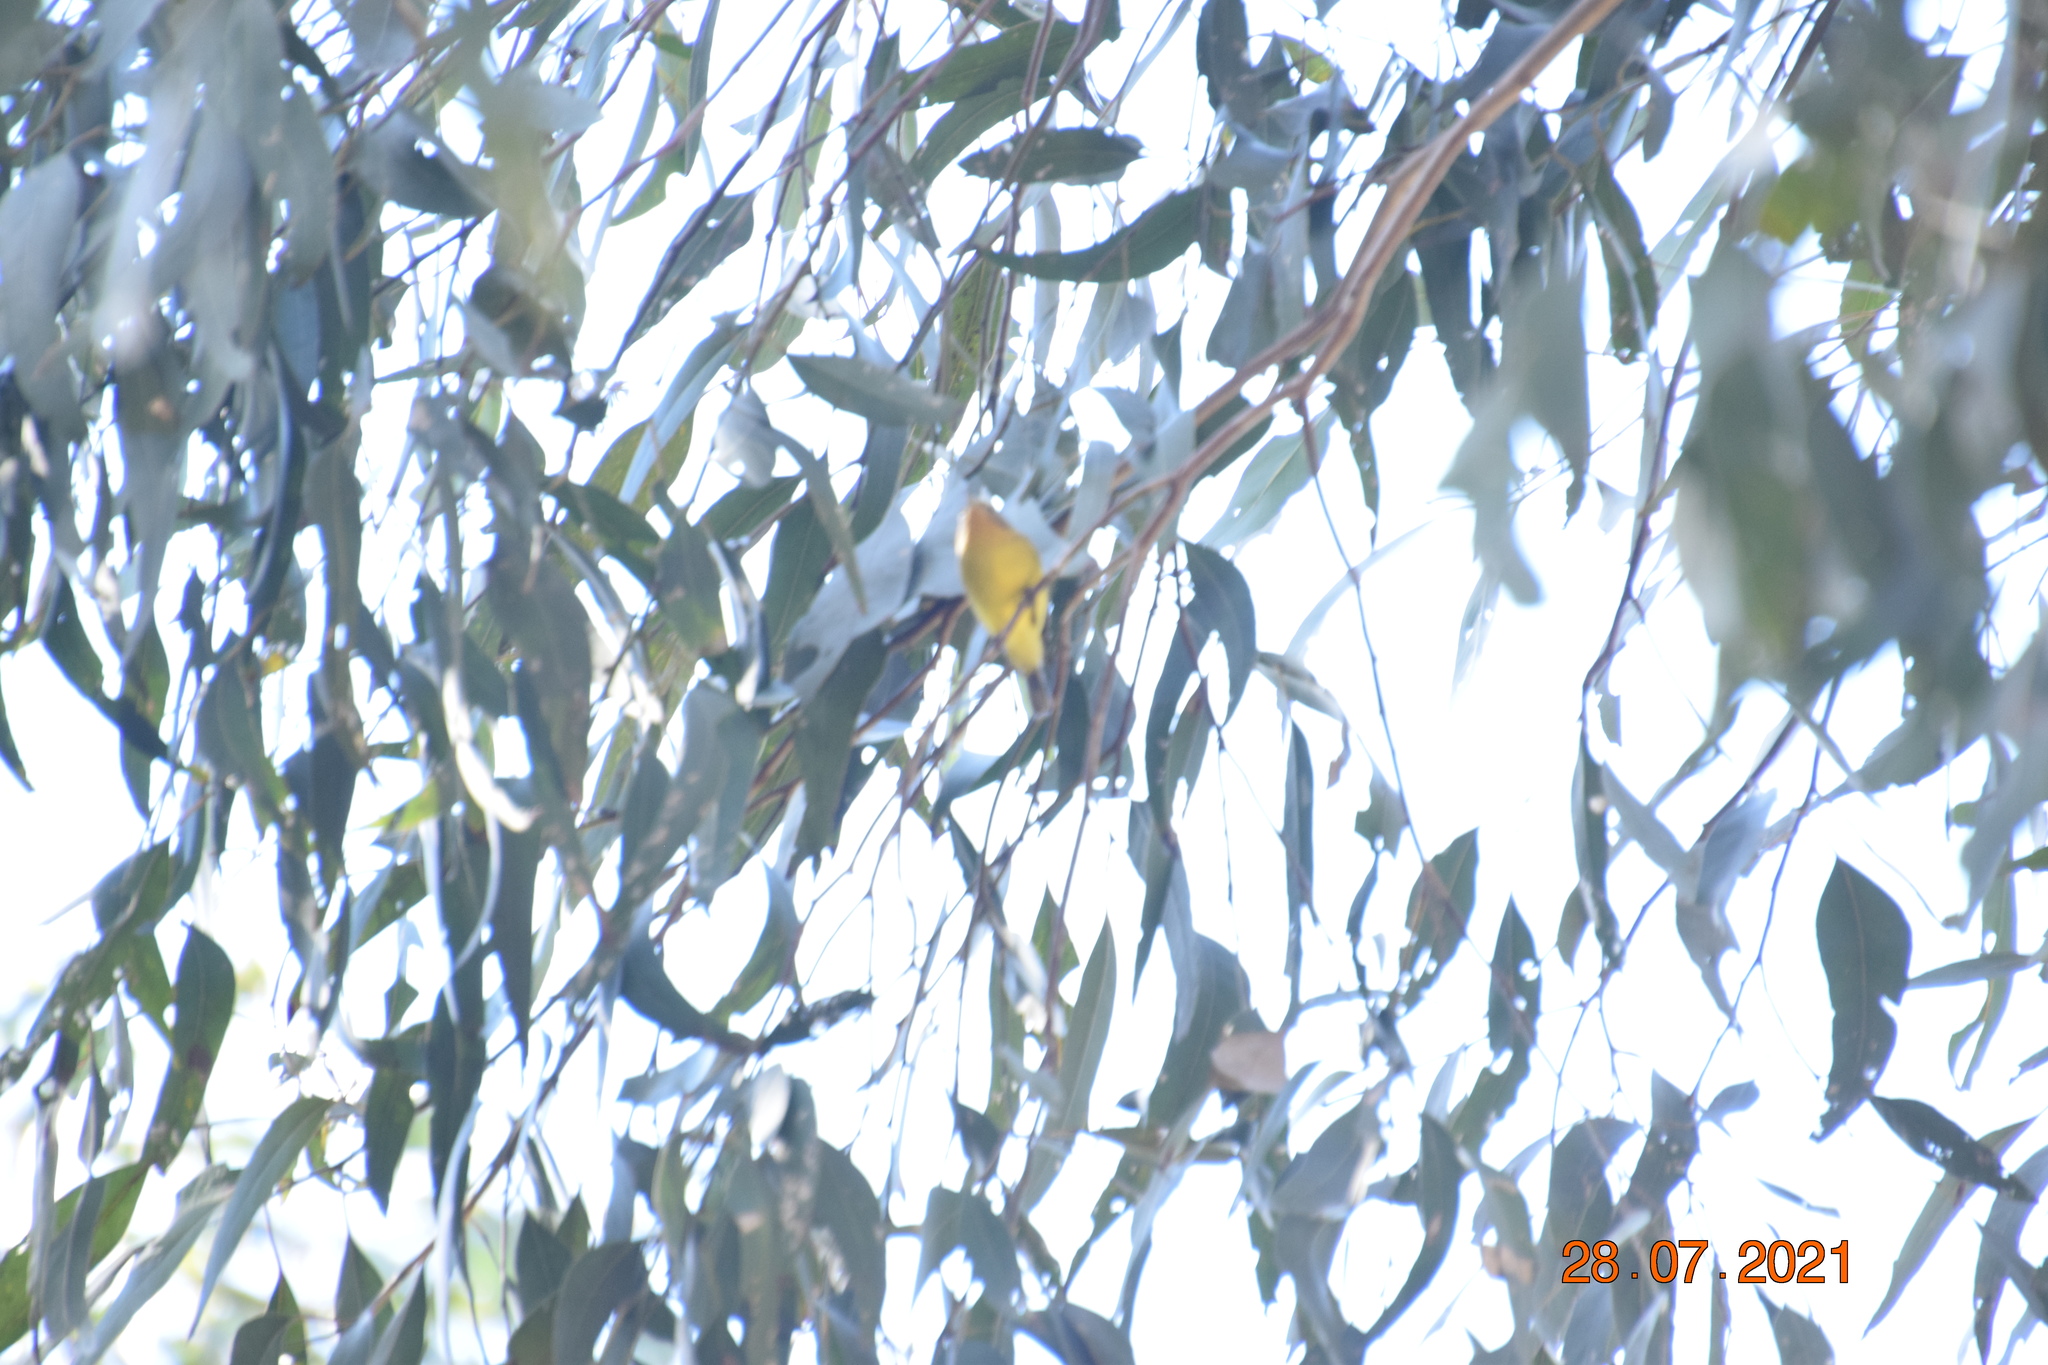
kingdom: Animalia
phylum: Chordata
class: Aves
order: Passeriformes
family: Acanthizidae
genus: Acanthiza
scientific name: Acanthiza nana
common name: Yellow thornbill
